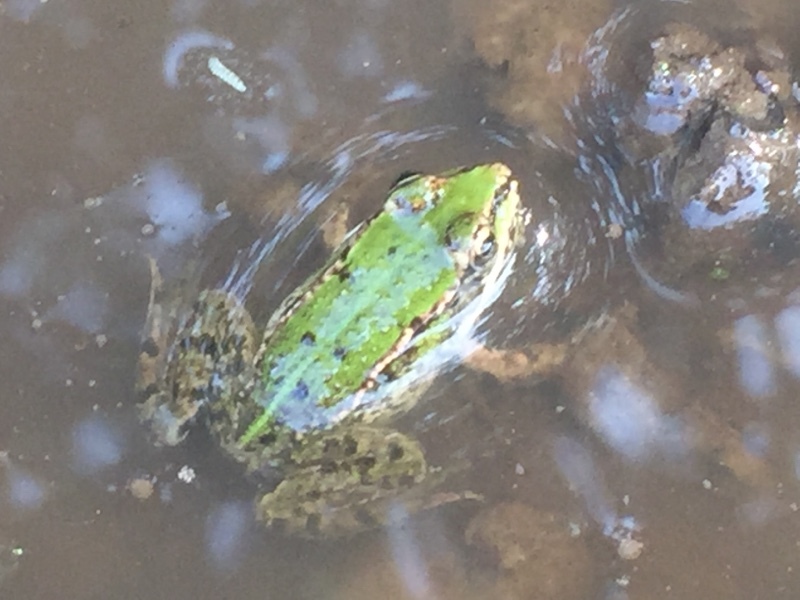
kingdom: Animalia
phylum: Chordata
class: Amphibia
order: Anura
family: Ranidae
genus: Pelophylax
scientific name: Pelophylax
